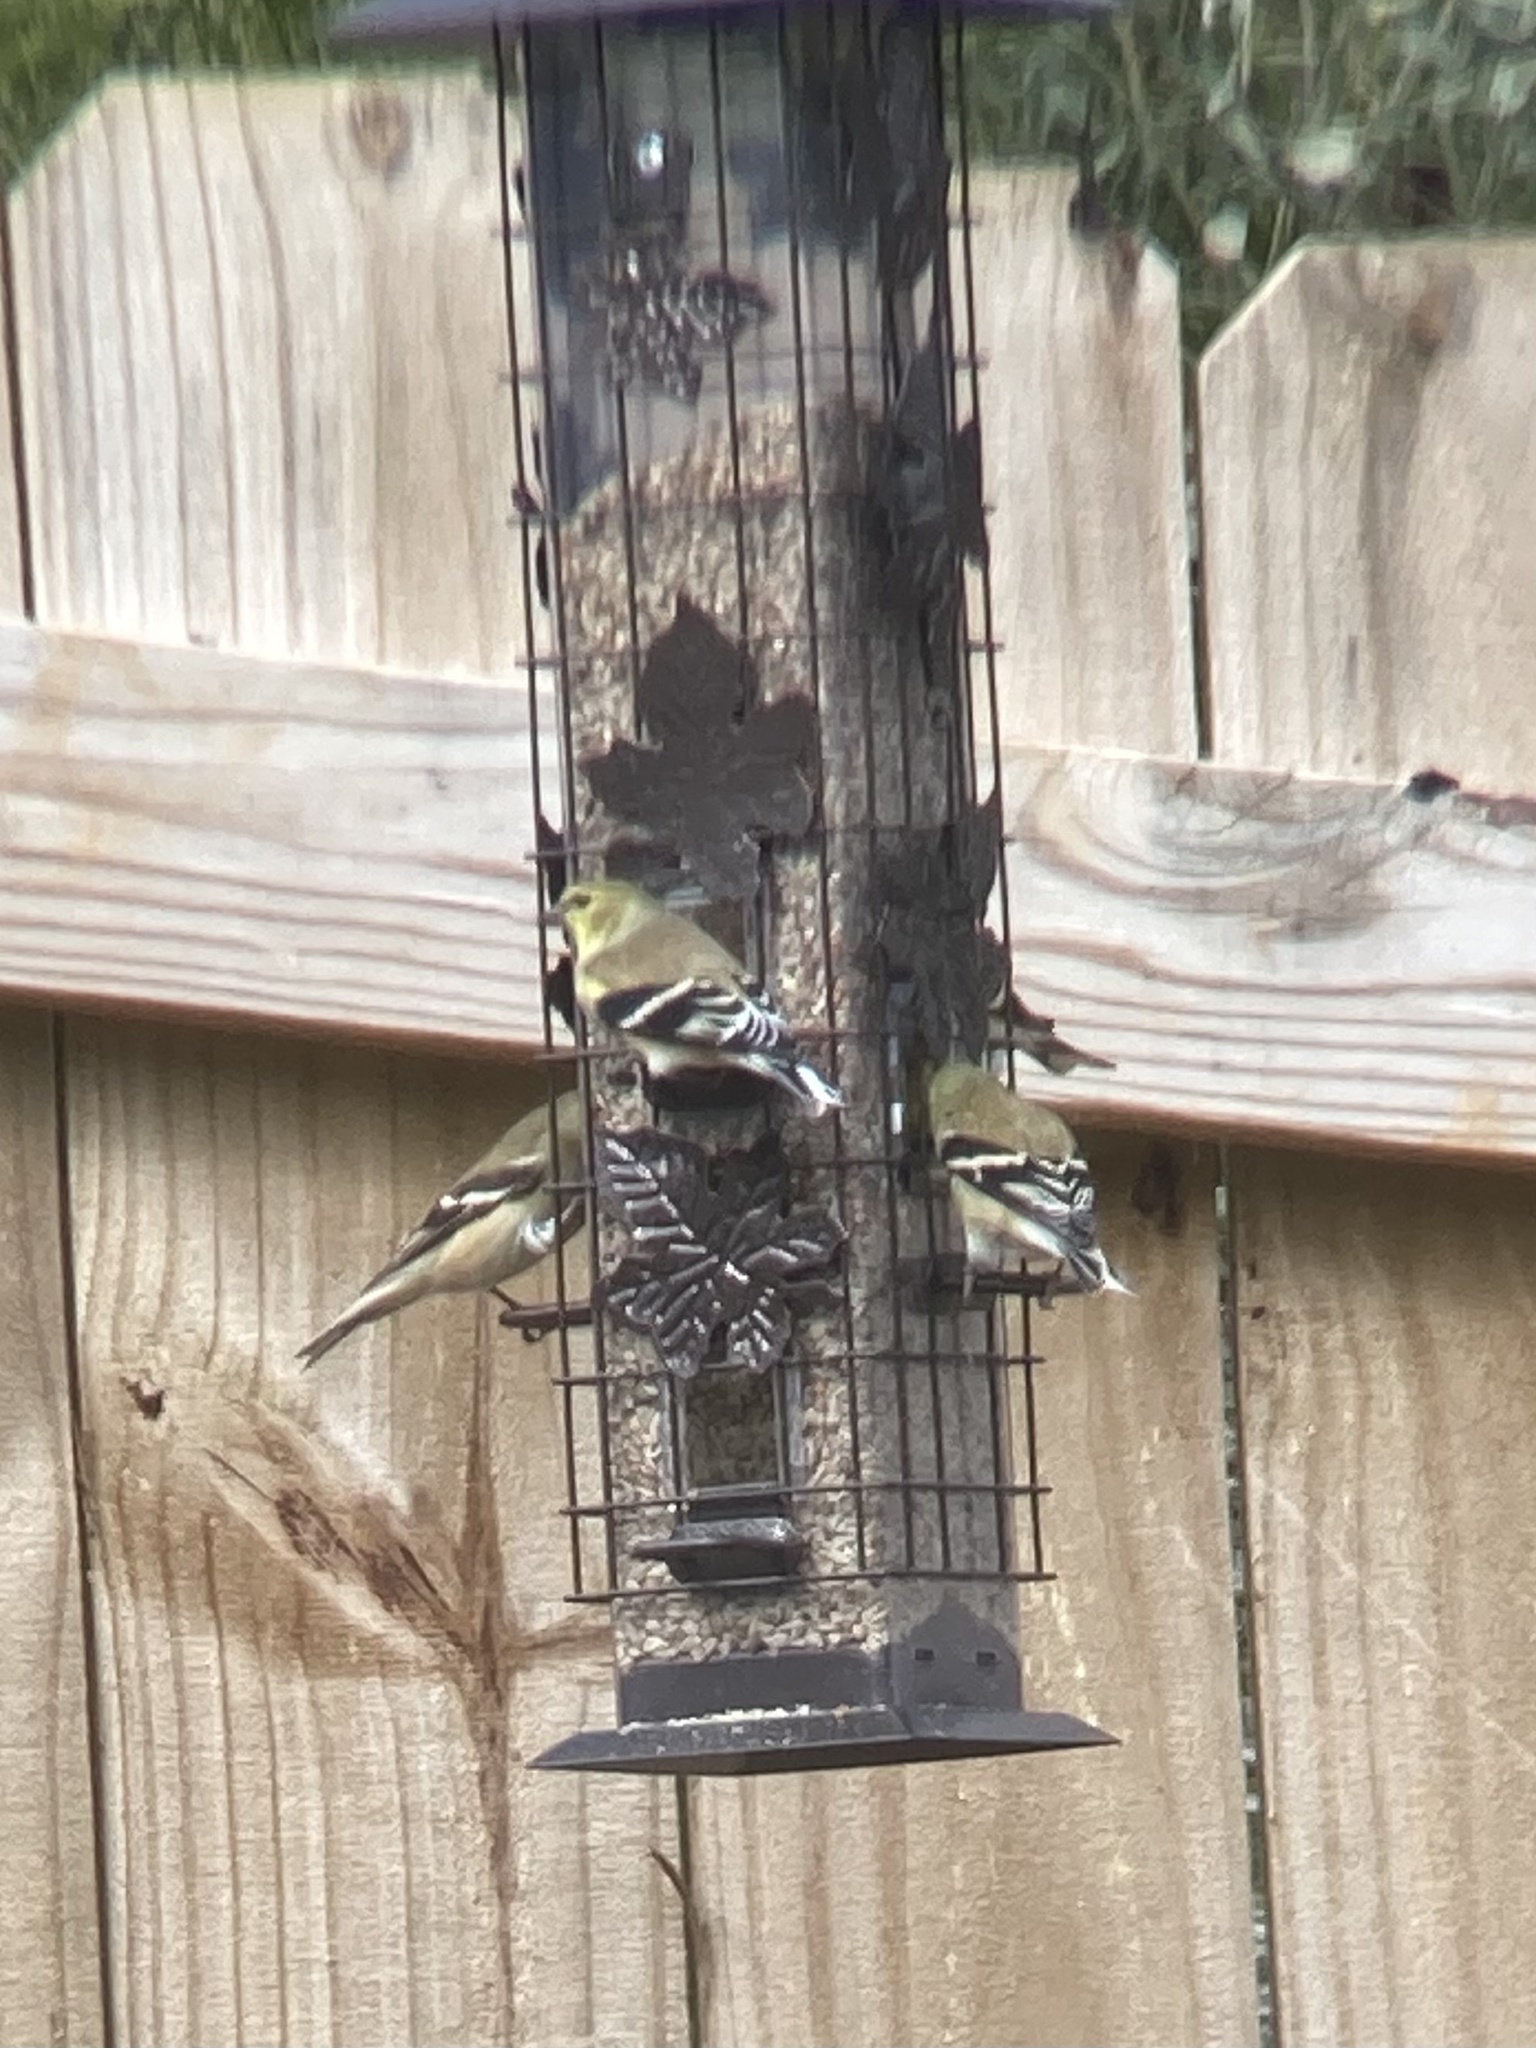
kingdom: Animalia
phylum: Chordata
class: Aves
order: Passeriformes
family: Fringillidae
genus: Spinus
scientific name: Spinus tristis
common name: American goldfinch
